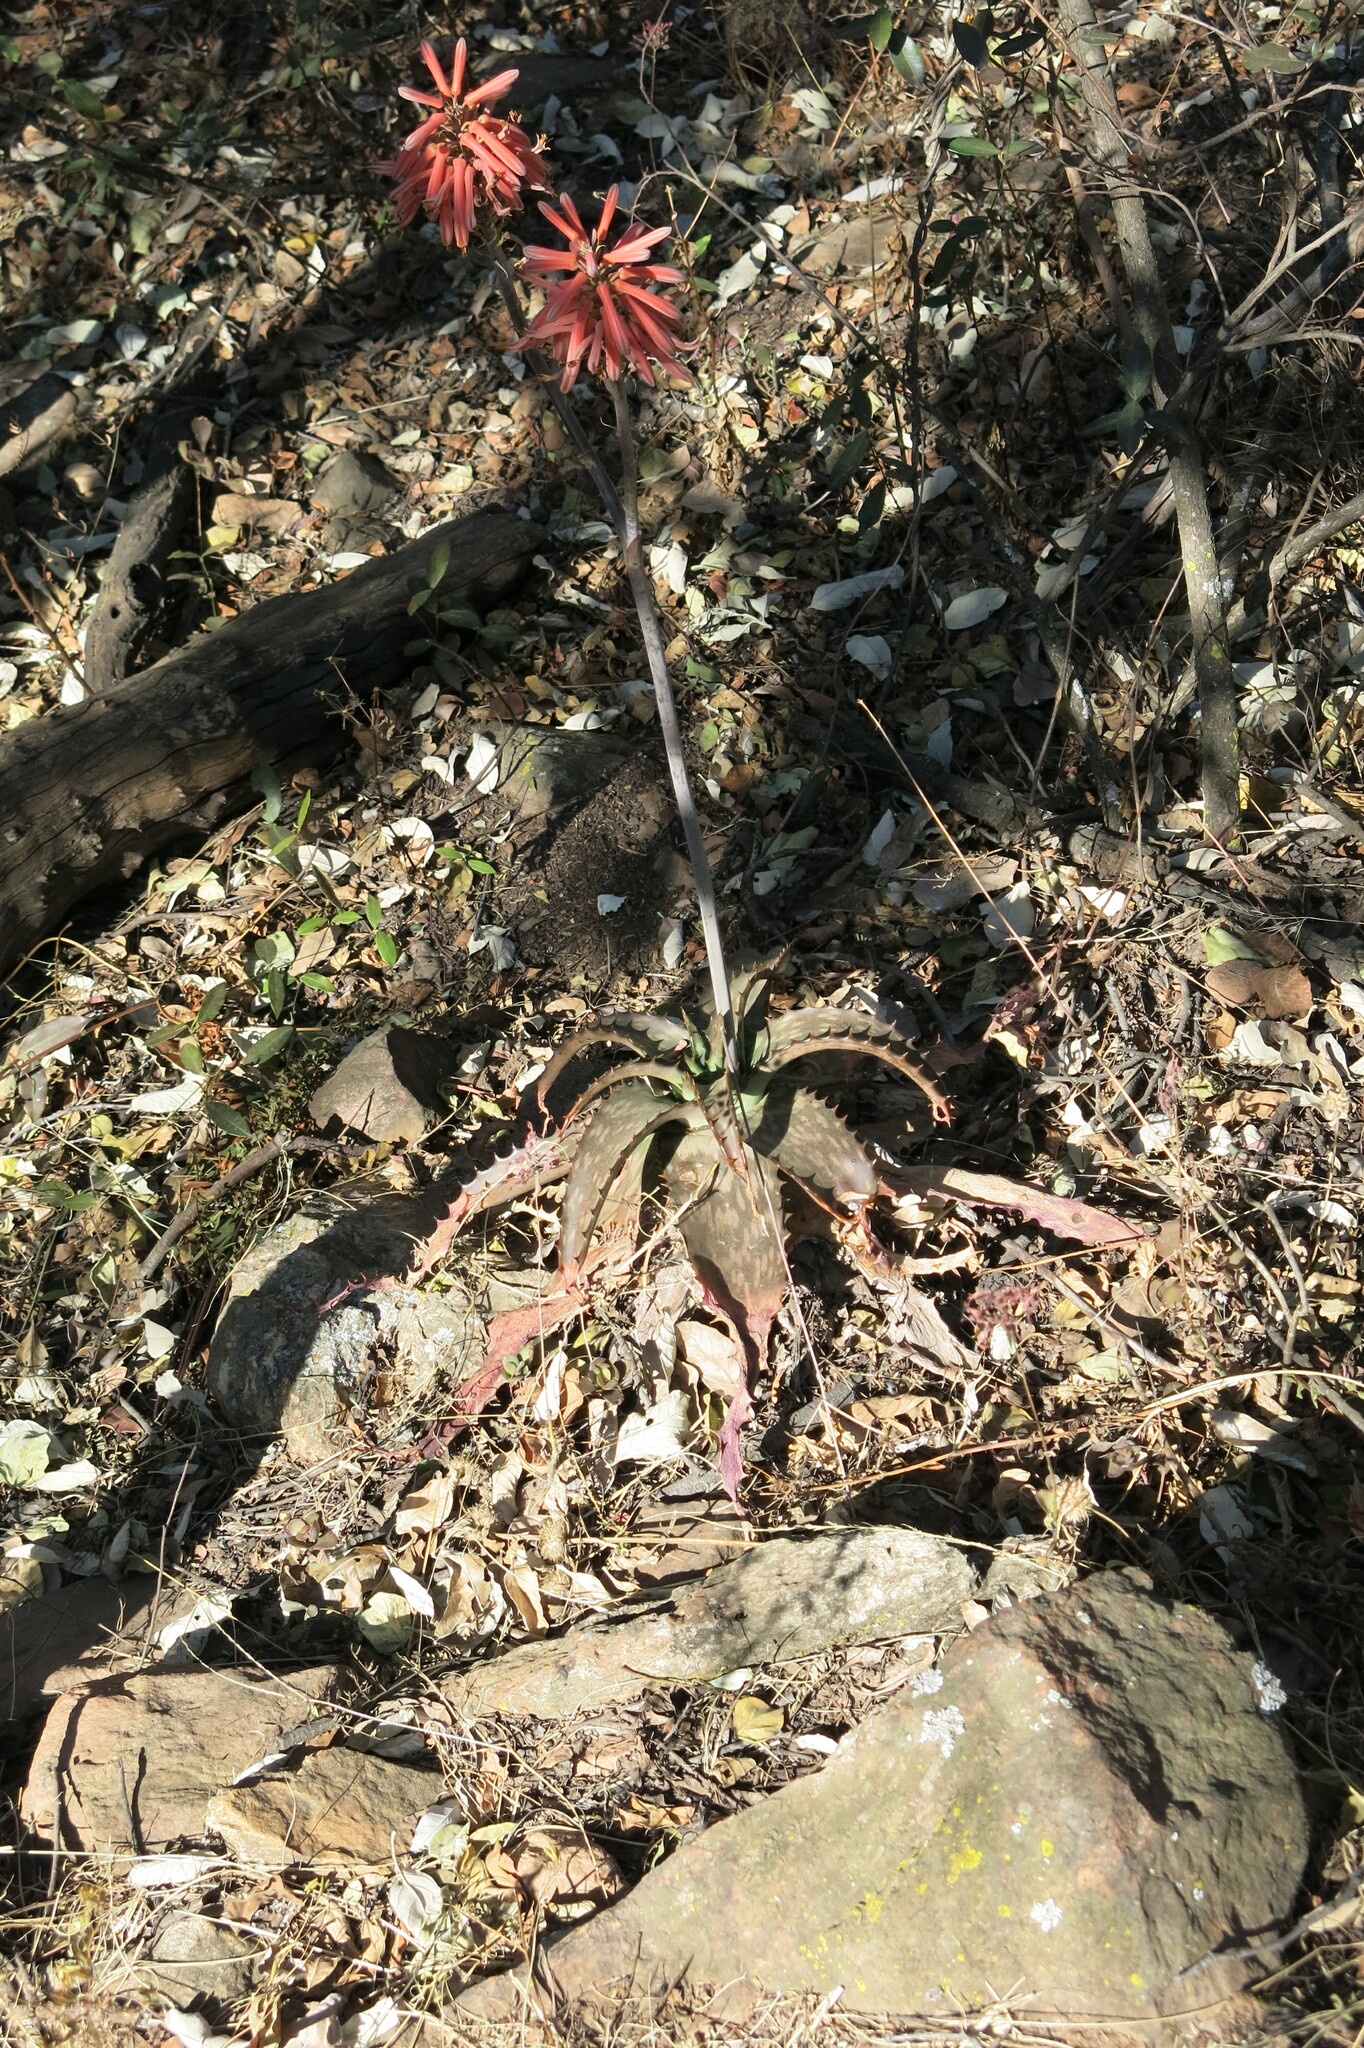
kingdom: Plantae
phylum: Tracheophyta
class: Liliopsida
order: Asparagales
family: Asphodelaceae
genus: Aloe
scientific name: Aloe davyana
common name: Spotted aloe
